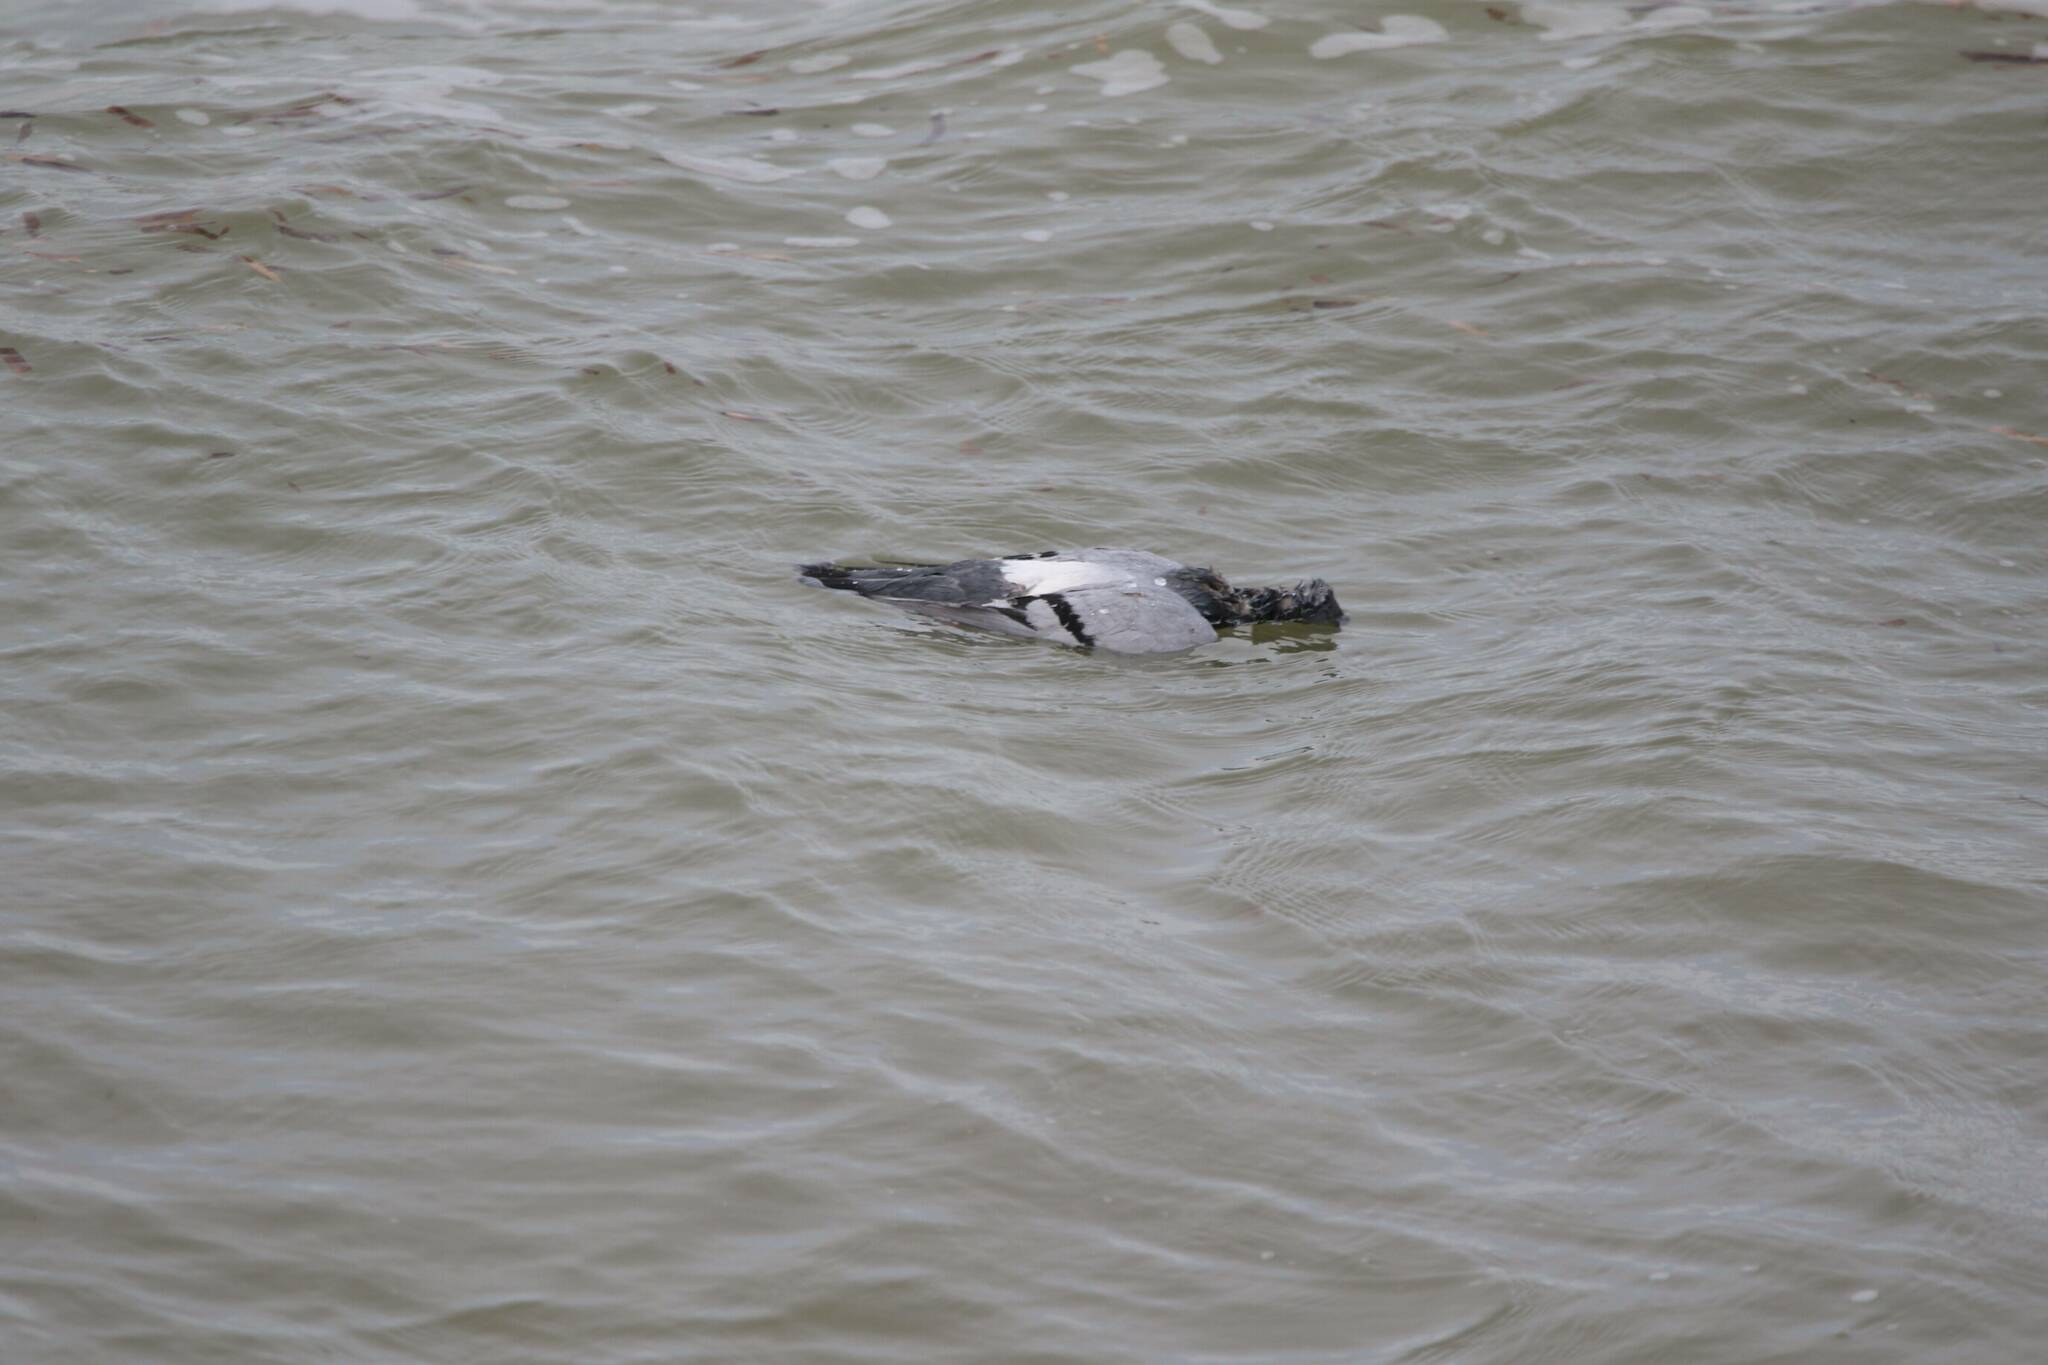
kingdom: Animalia
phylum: Chordata
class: Aves
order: Columbiformes
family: Columbidae
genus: Columba
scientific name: Columba livia
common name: Rock pigeon
